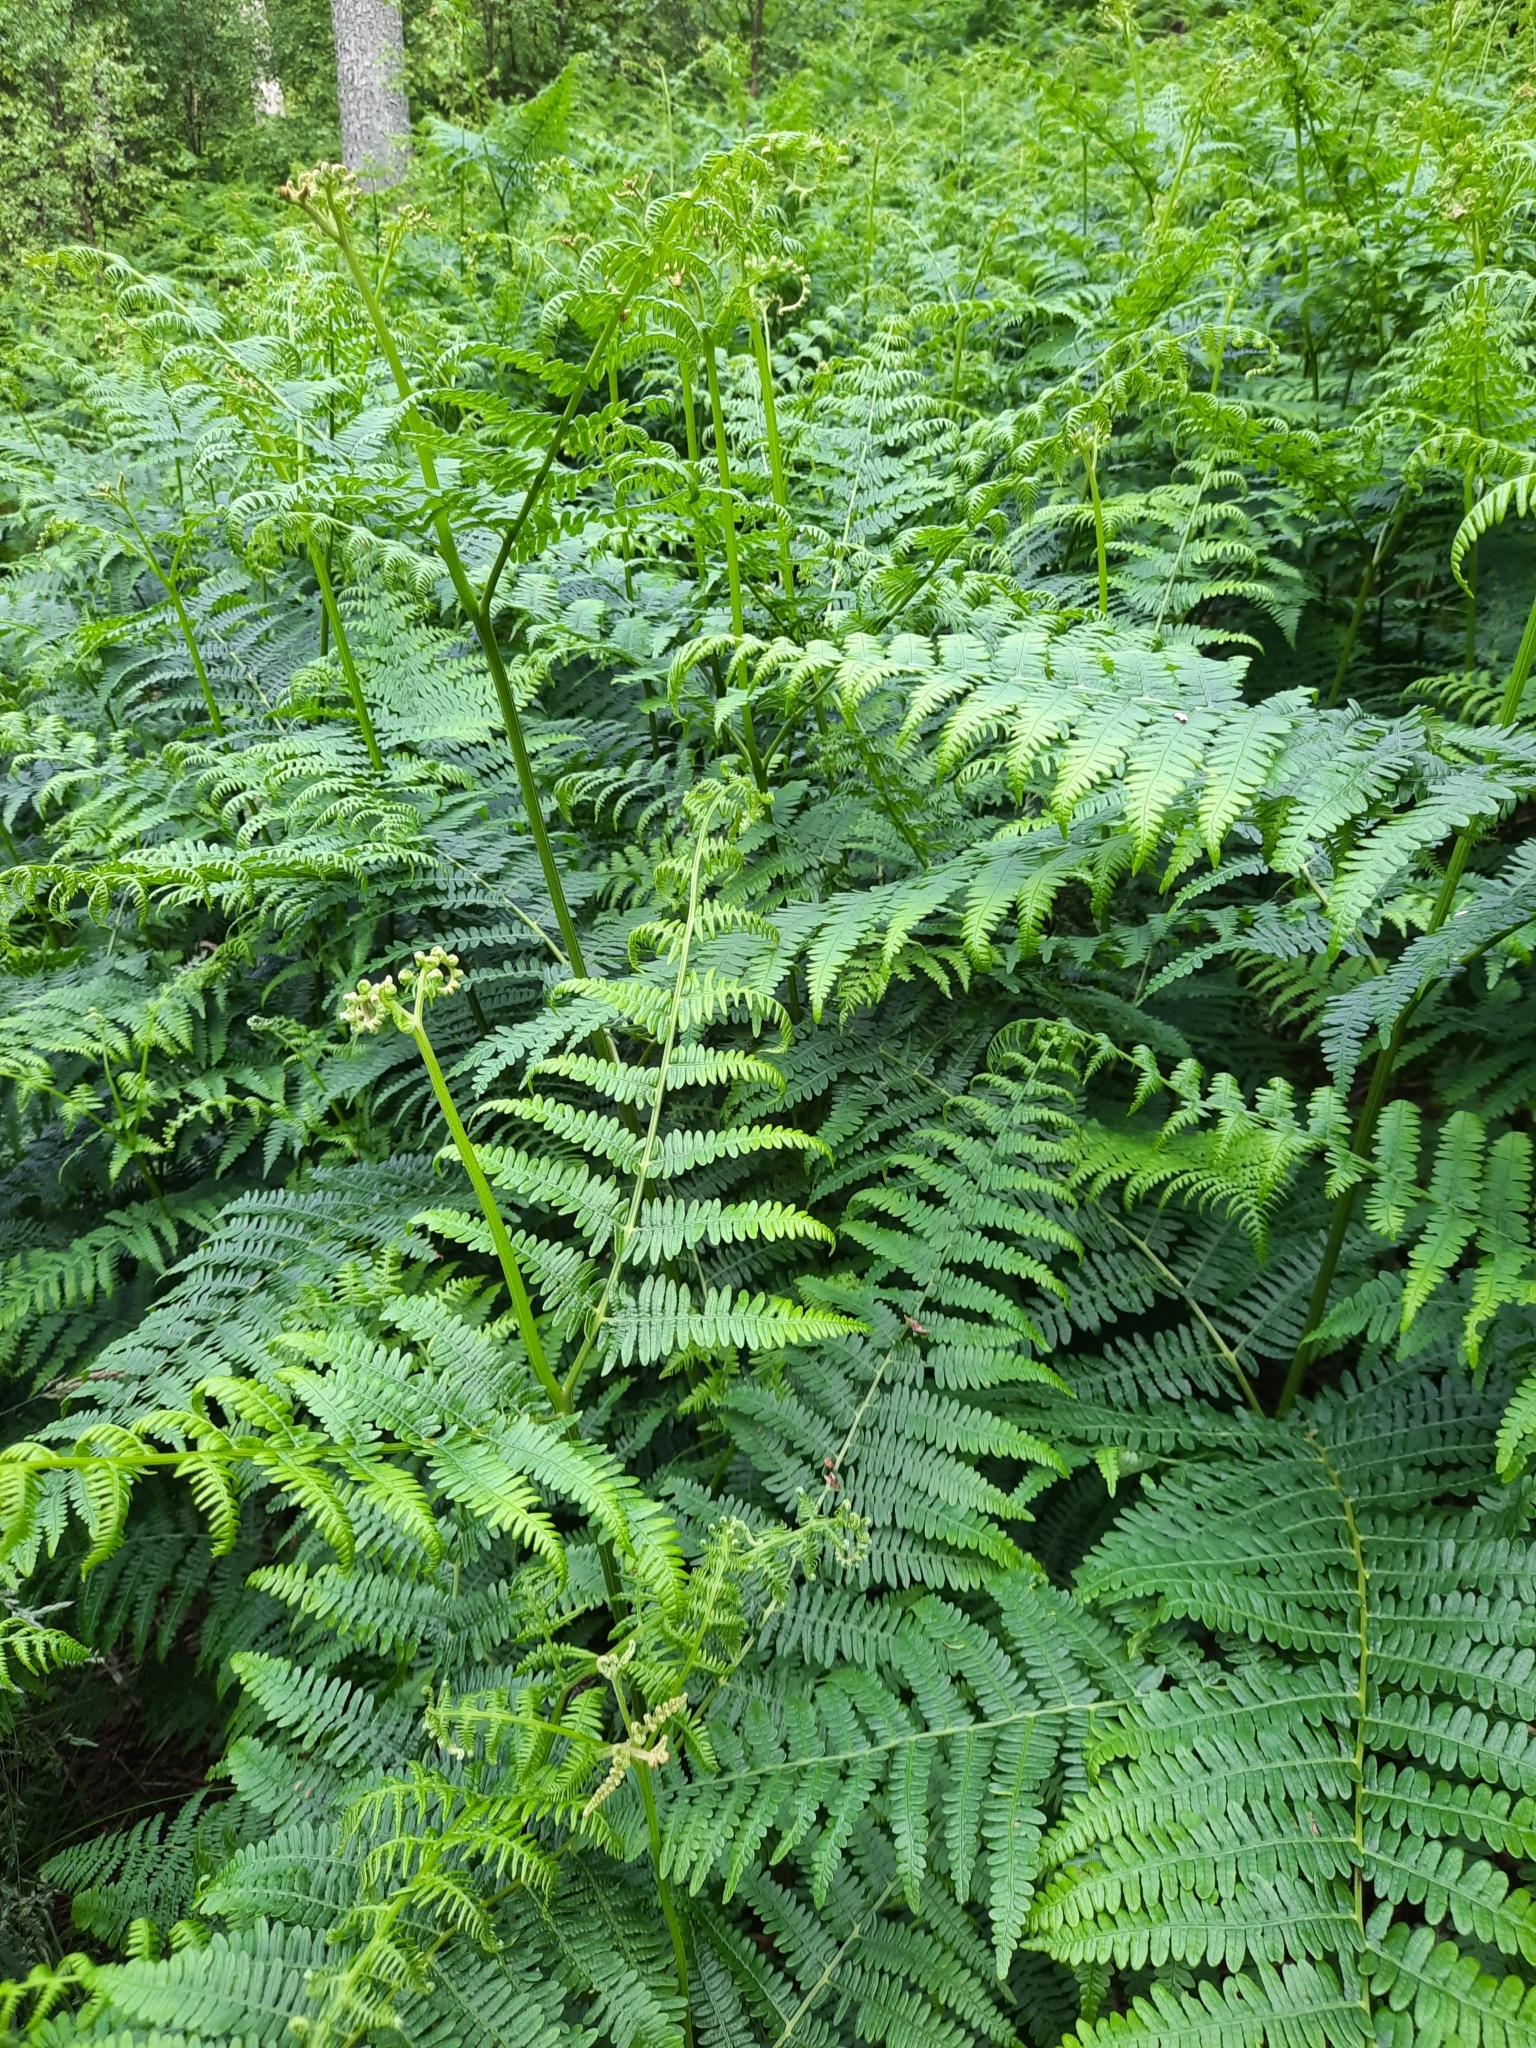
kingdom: Plantae
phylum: Tracheophyta
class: Polypodiopsida
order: Polypodiales
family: Dennstaedtiaceae
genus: Pteridium
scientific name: Pteridium aquilinum
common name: Bracken
